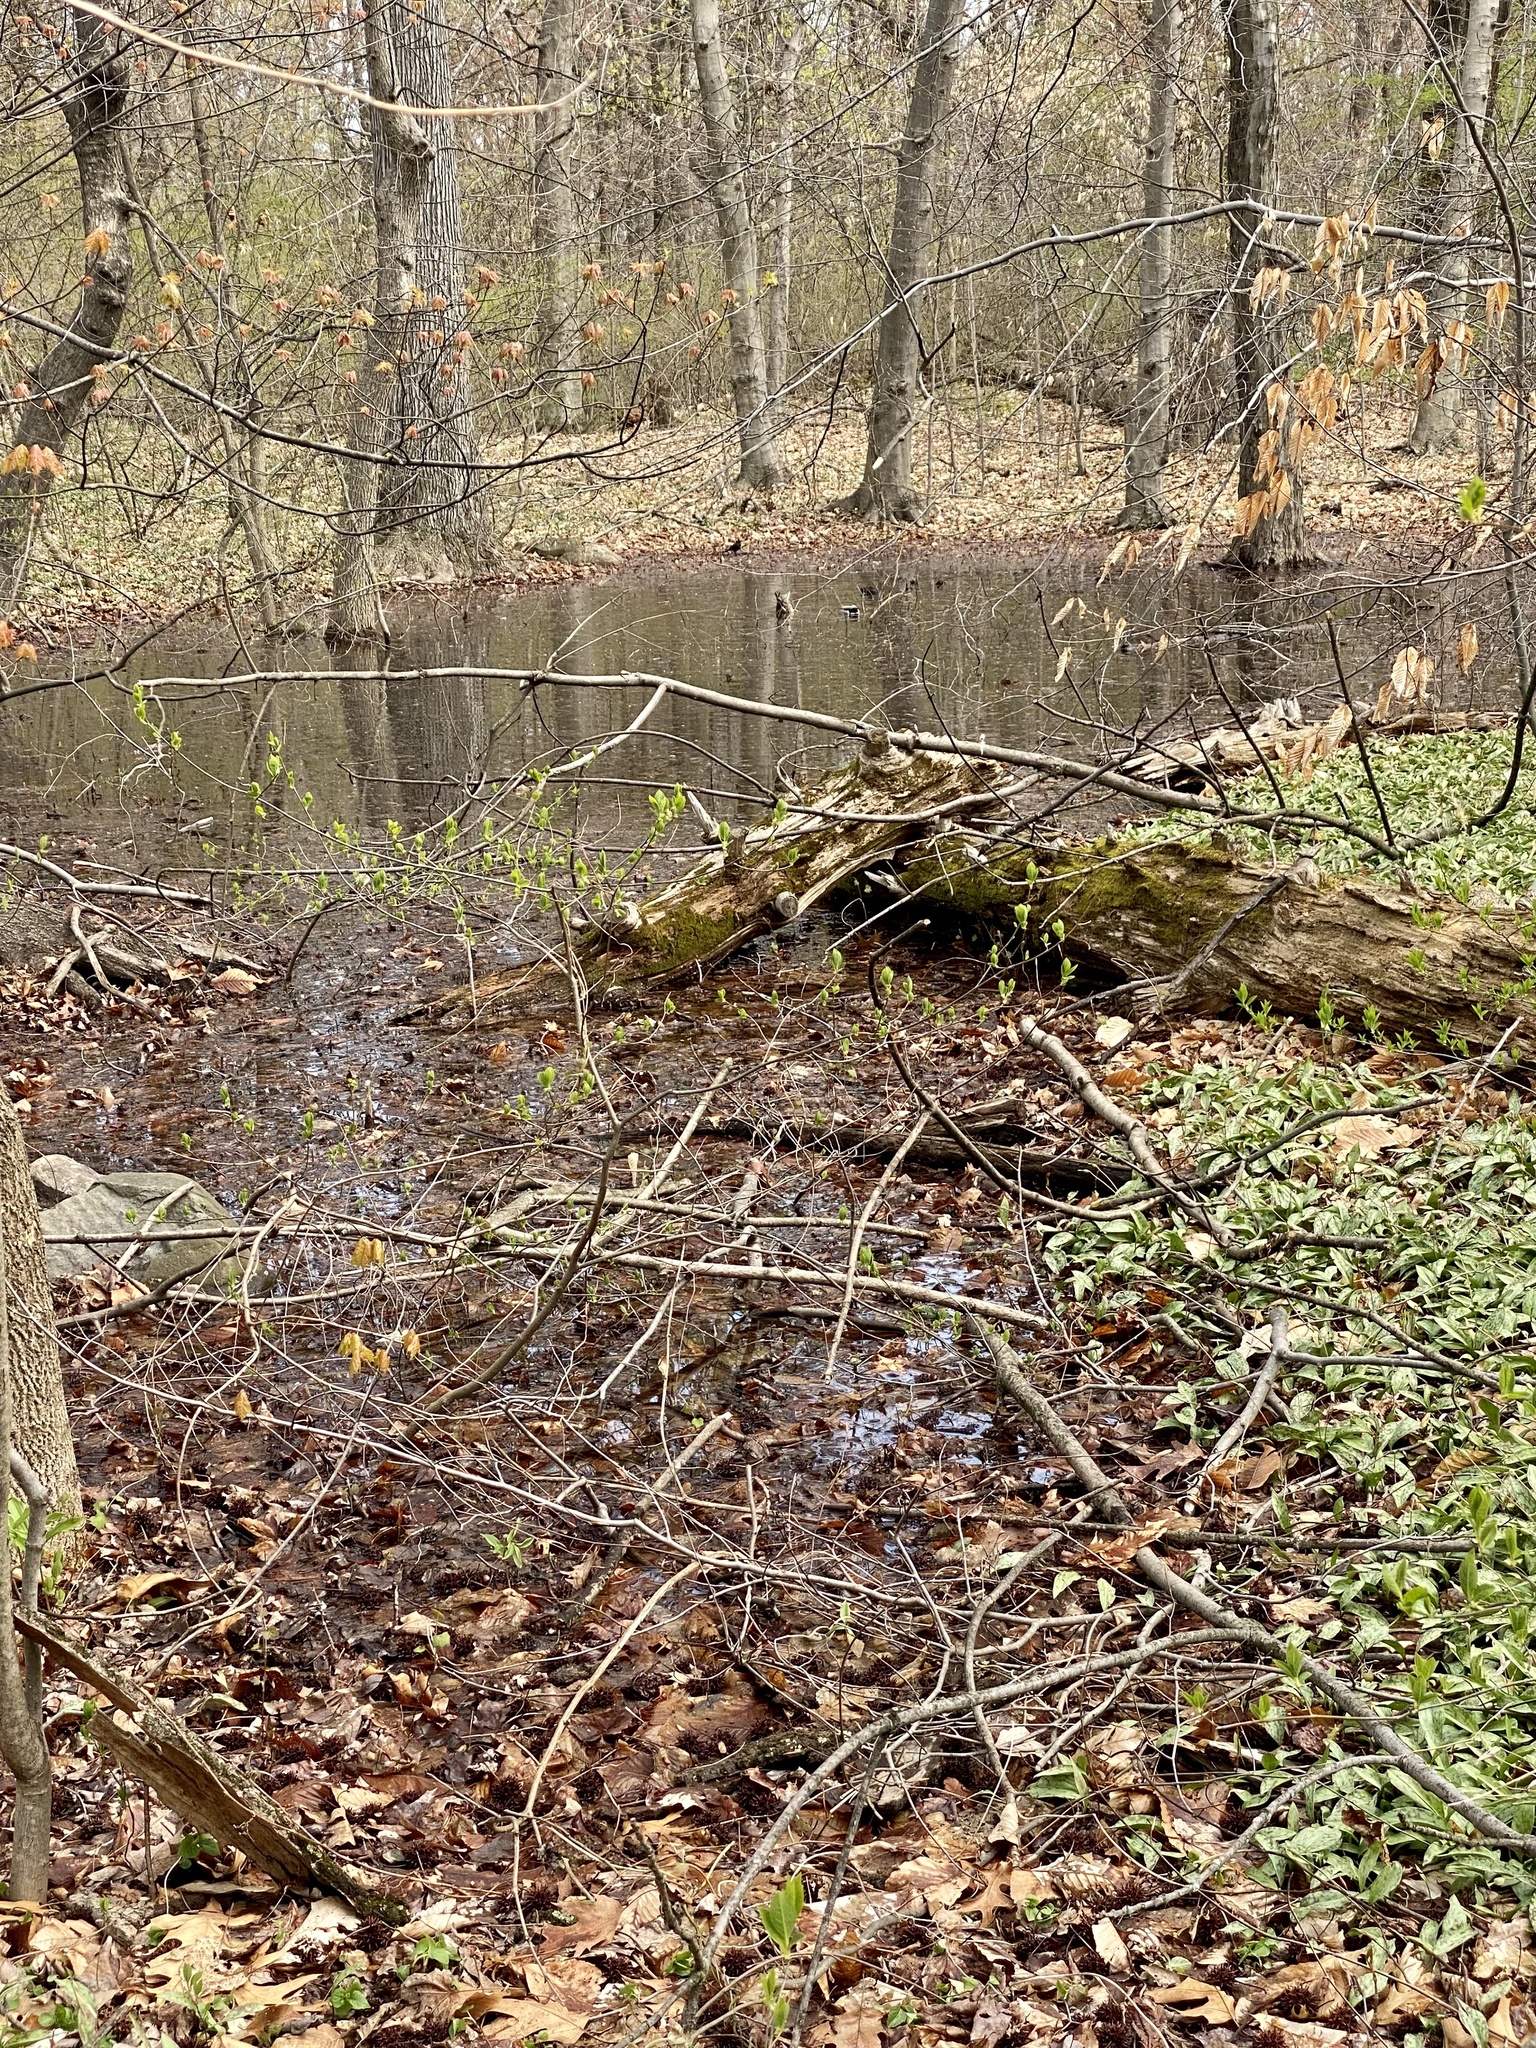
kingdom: Animalia
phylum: Chordata
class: Aves
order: Anseriformes
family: Anatidae
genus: Anas
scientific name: Anas platyrhynchos
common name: Mallard
